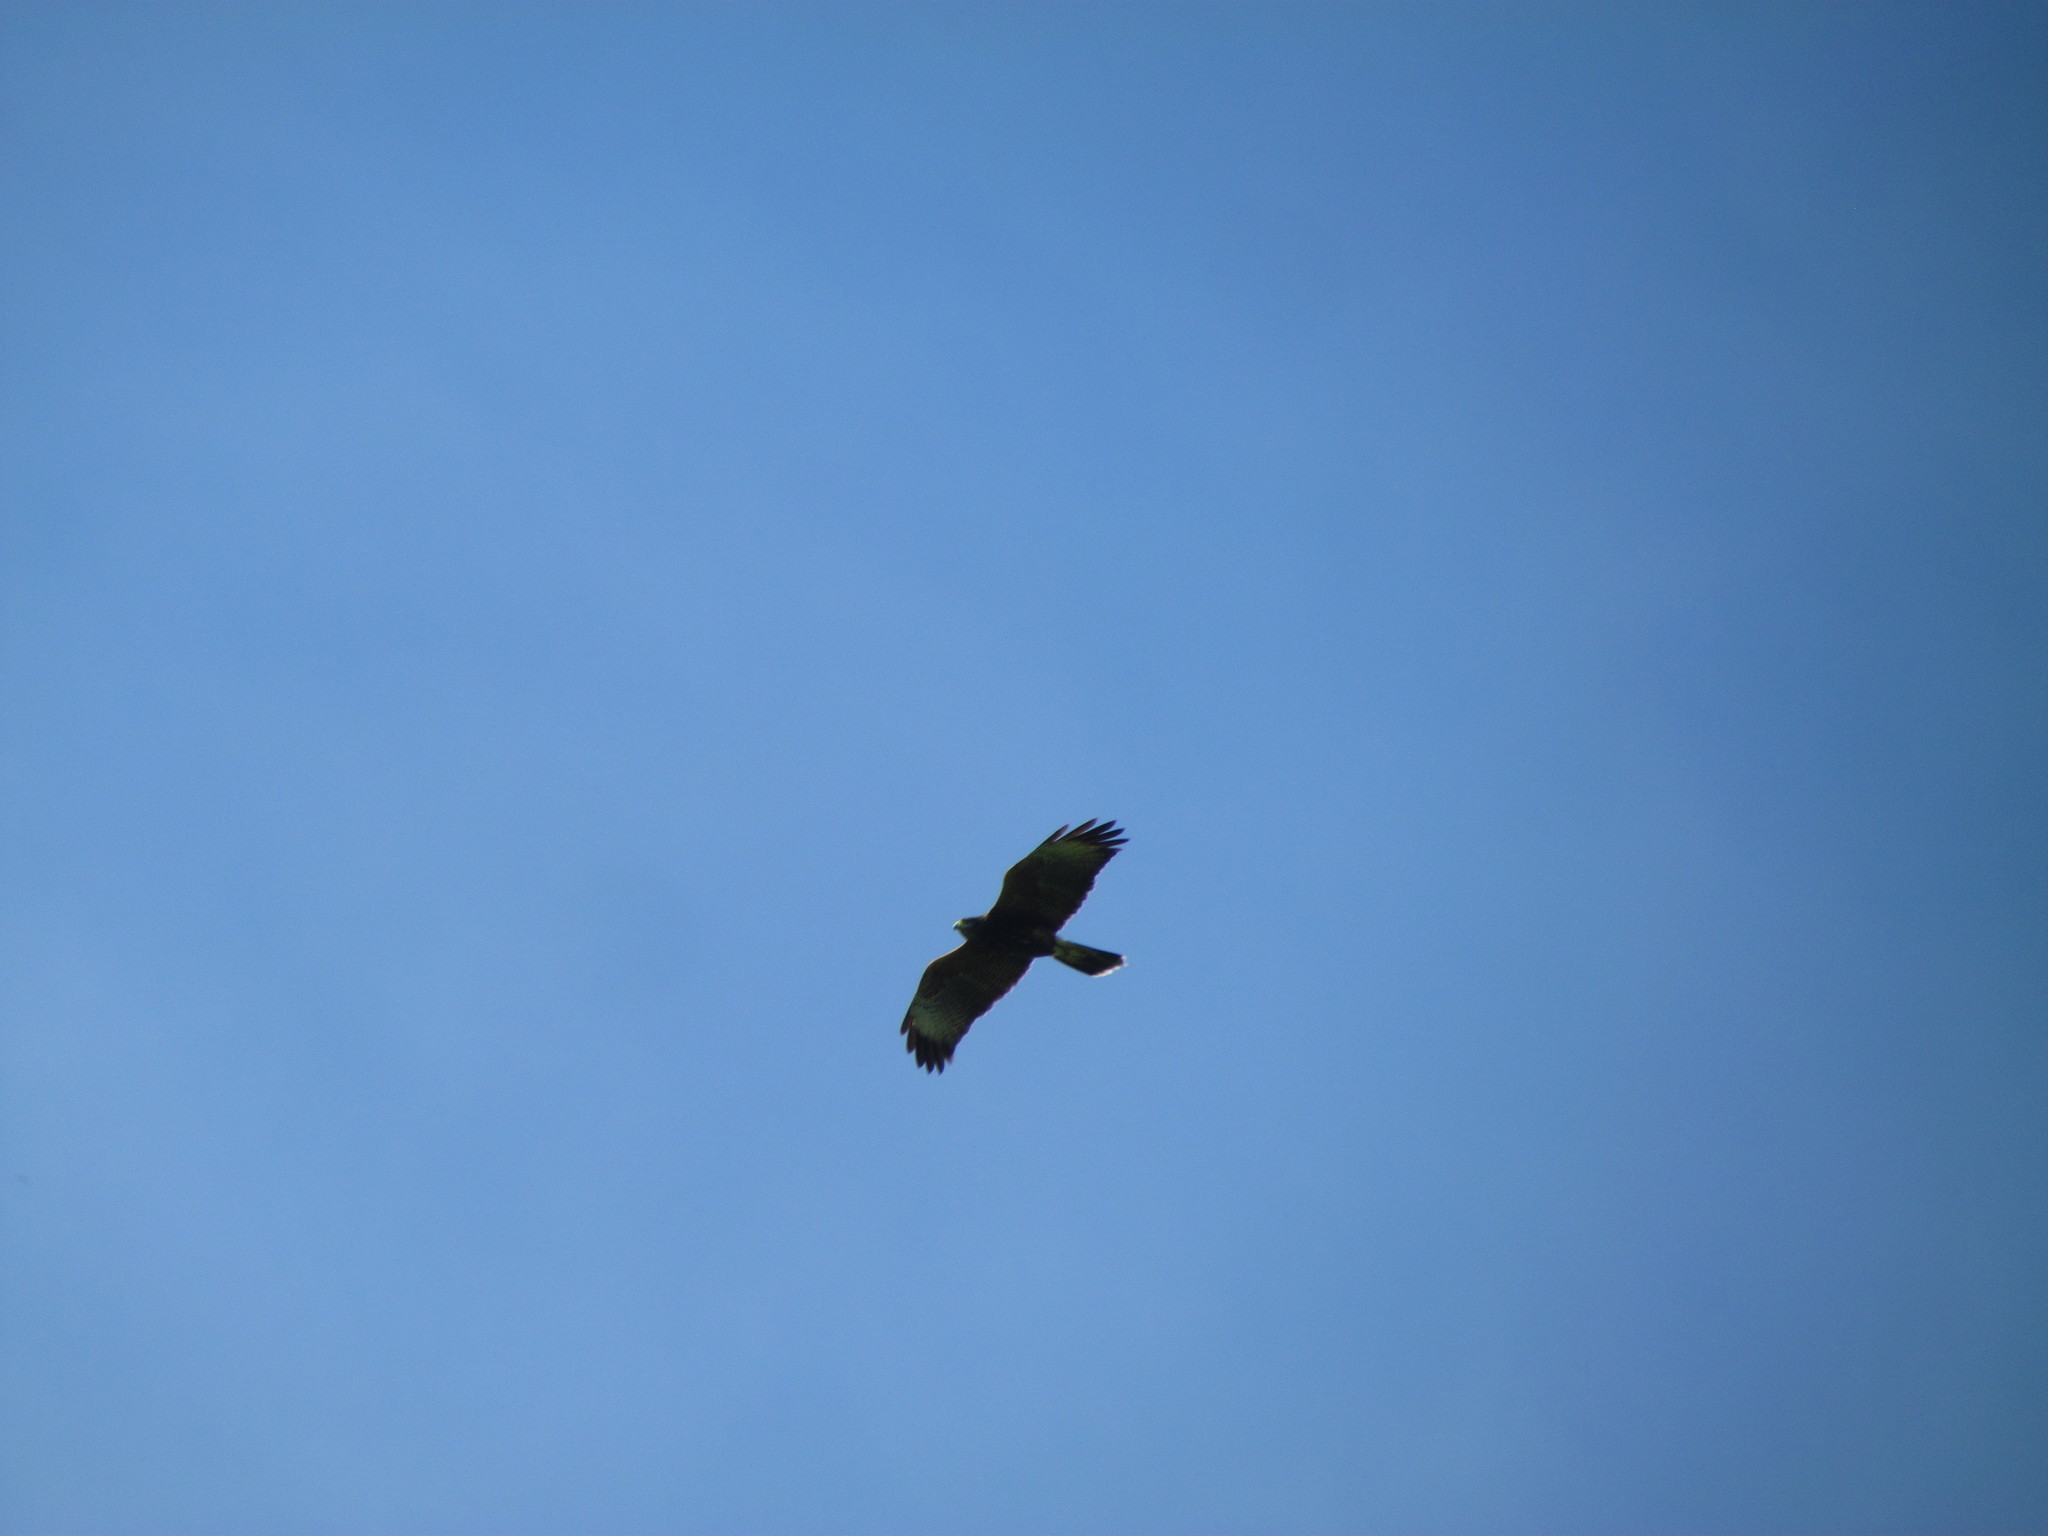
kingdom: Animalia
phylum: Chordata
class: Aves
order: Accipitriformes
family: Accipitridae
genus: Parabuteo
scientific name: Parabuteo unicinctus
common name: Harris's hawk
